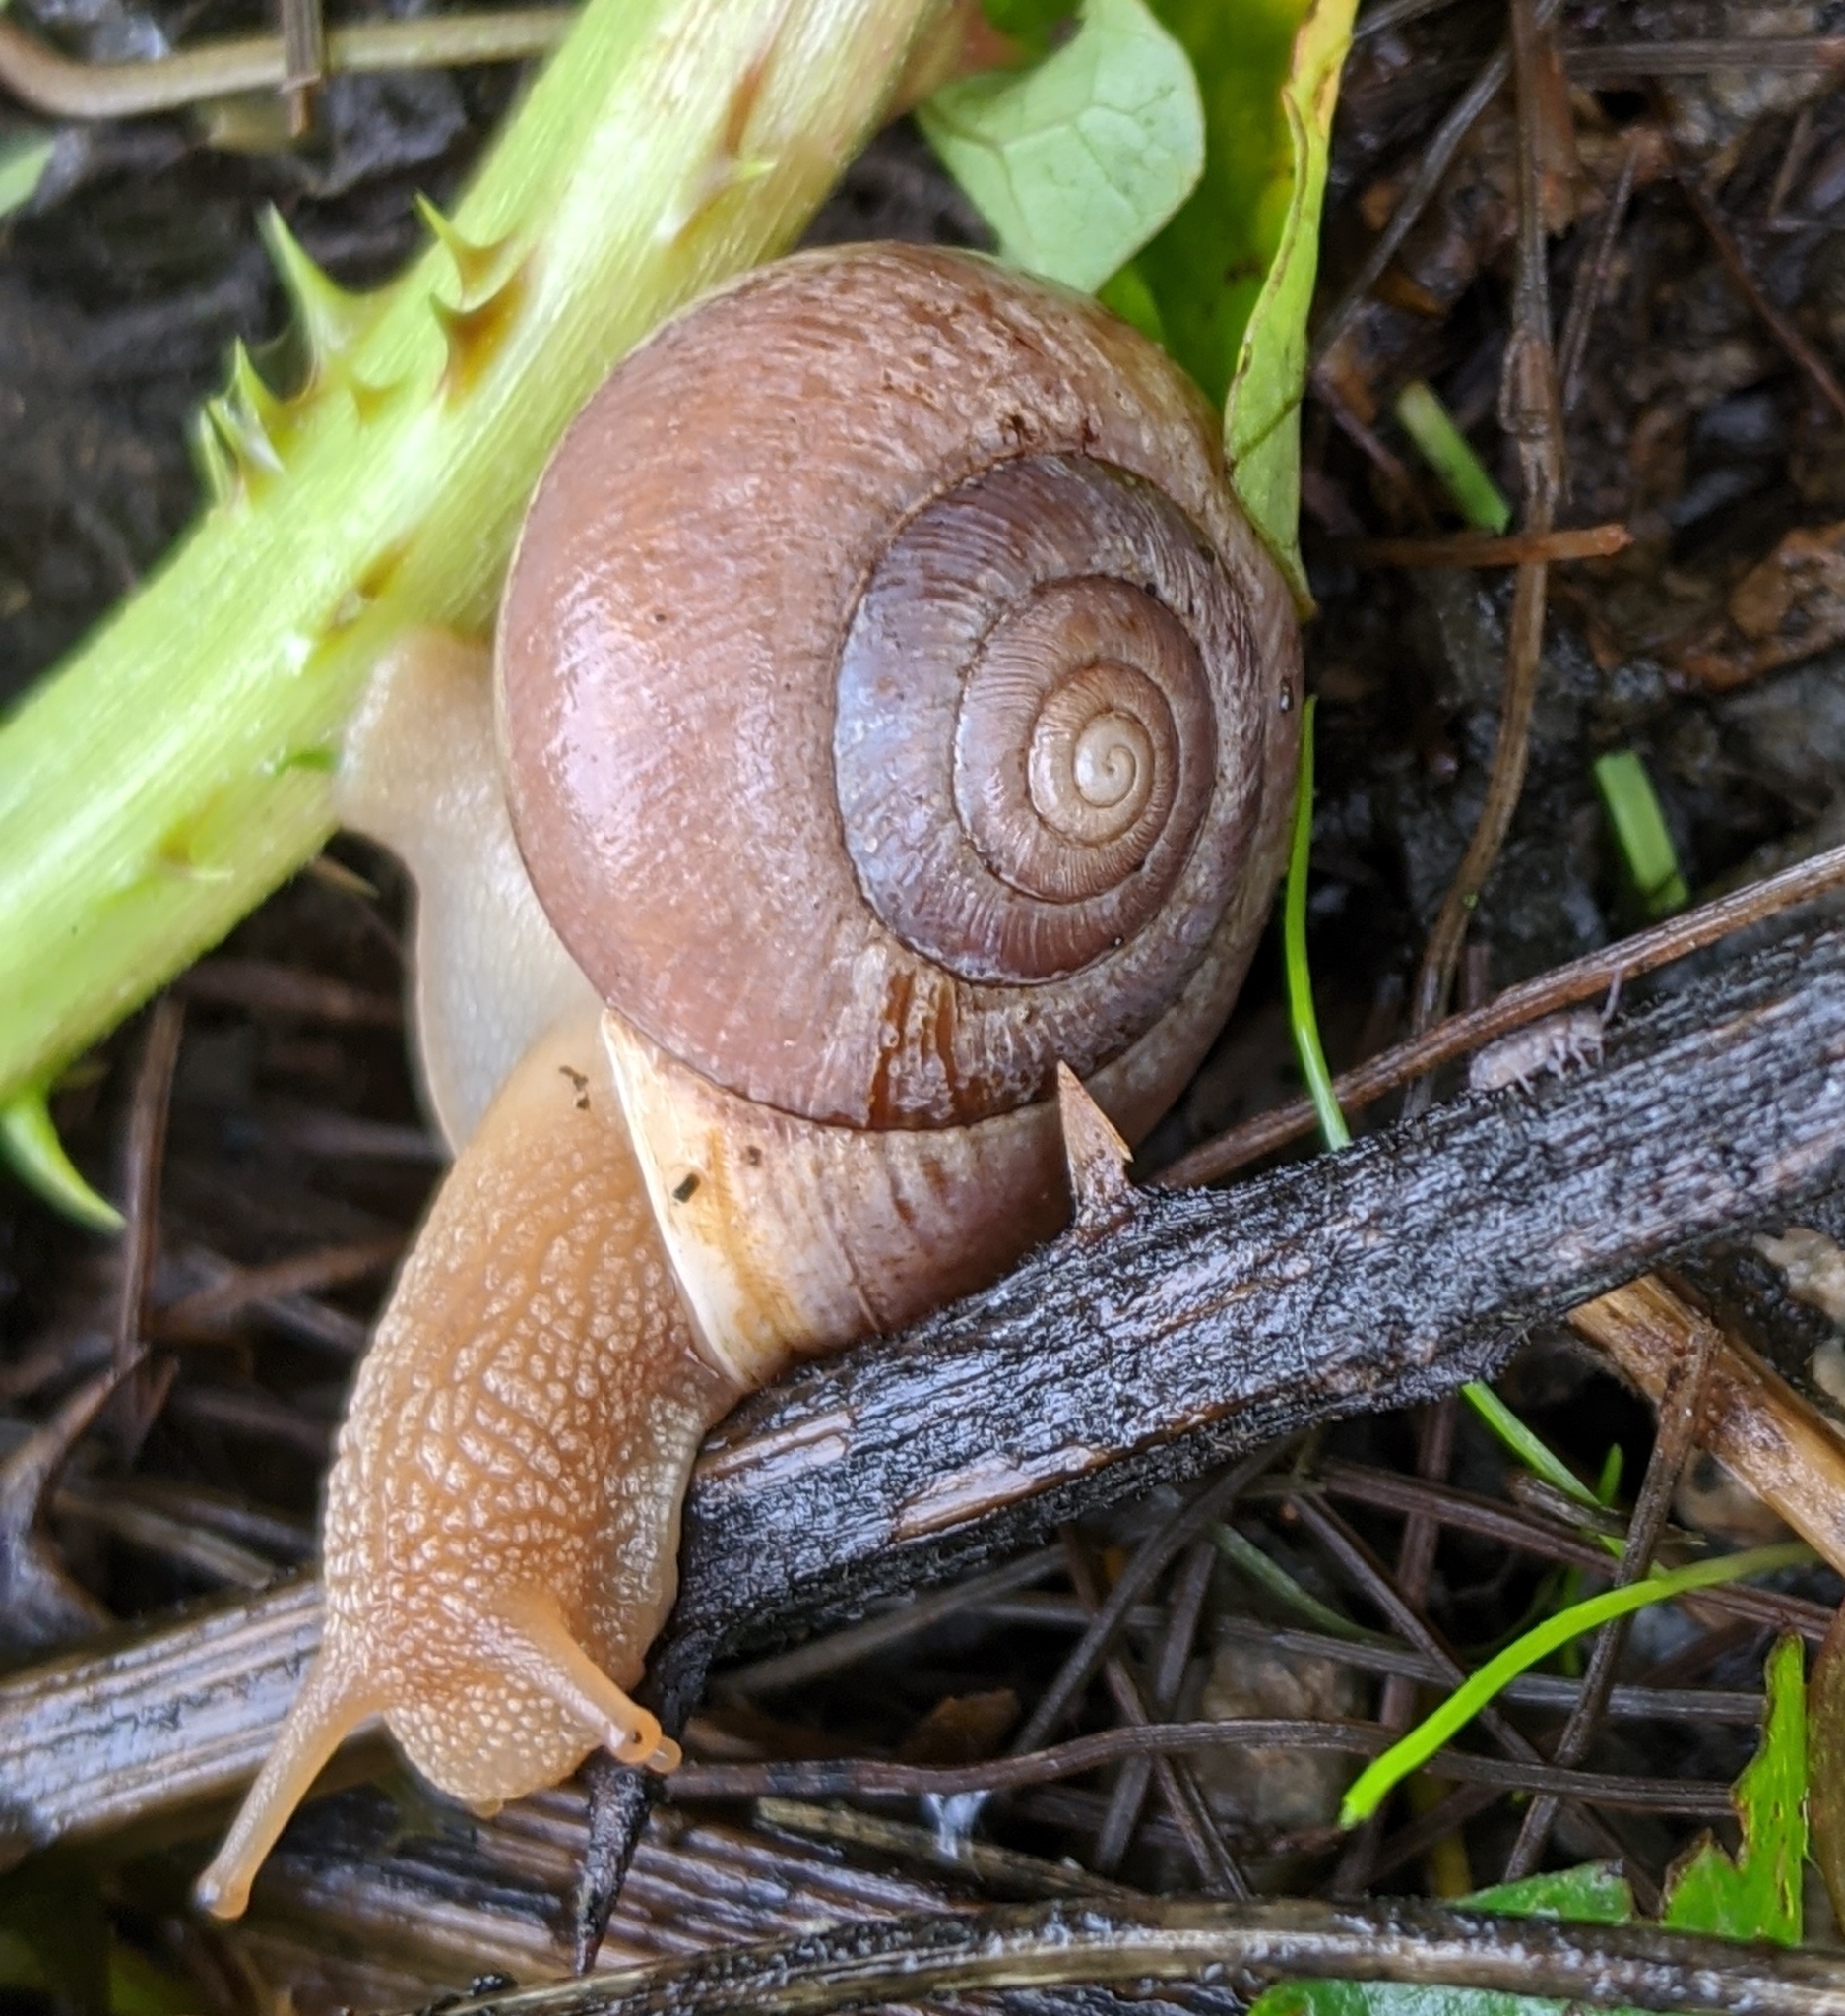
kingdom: Animalia
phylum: Mollusca
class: Gastropoda
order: Stylommatophora
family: Polygyridae
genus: Allogona
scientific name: Allogona townsendiana
